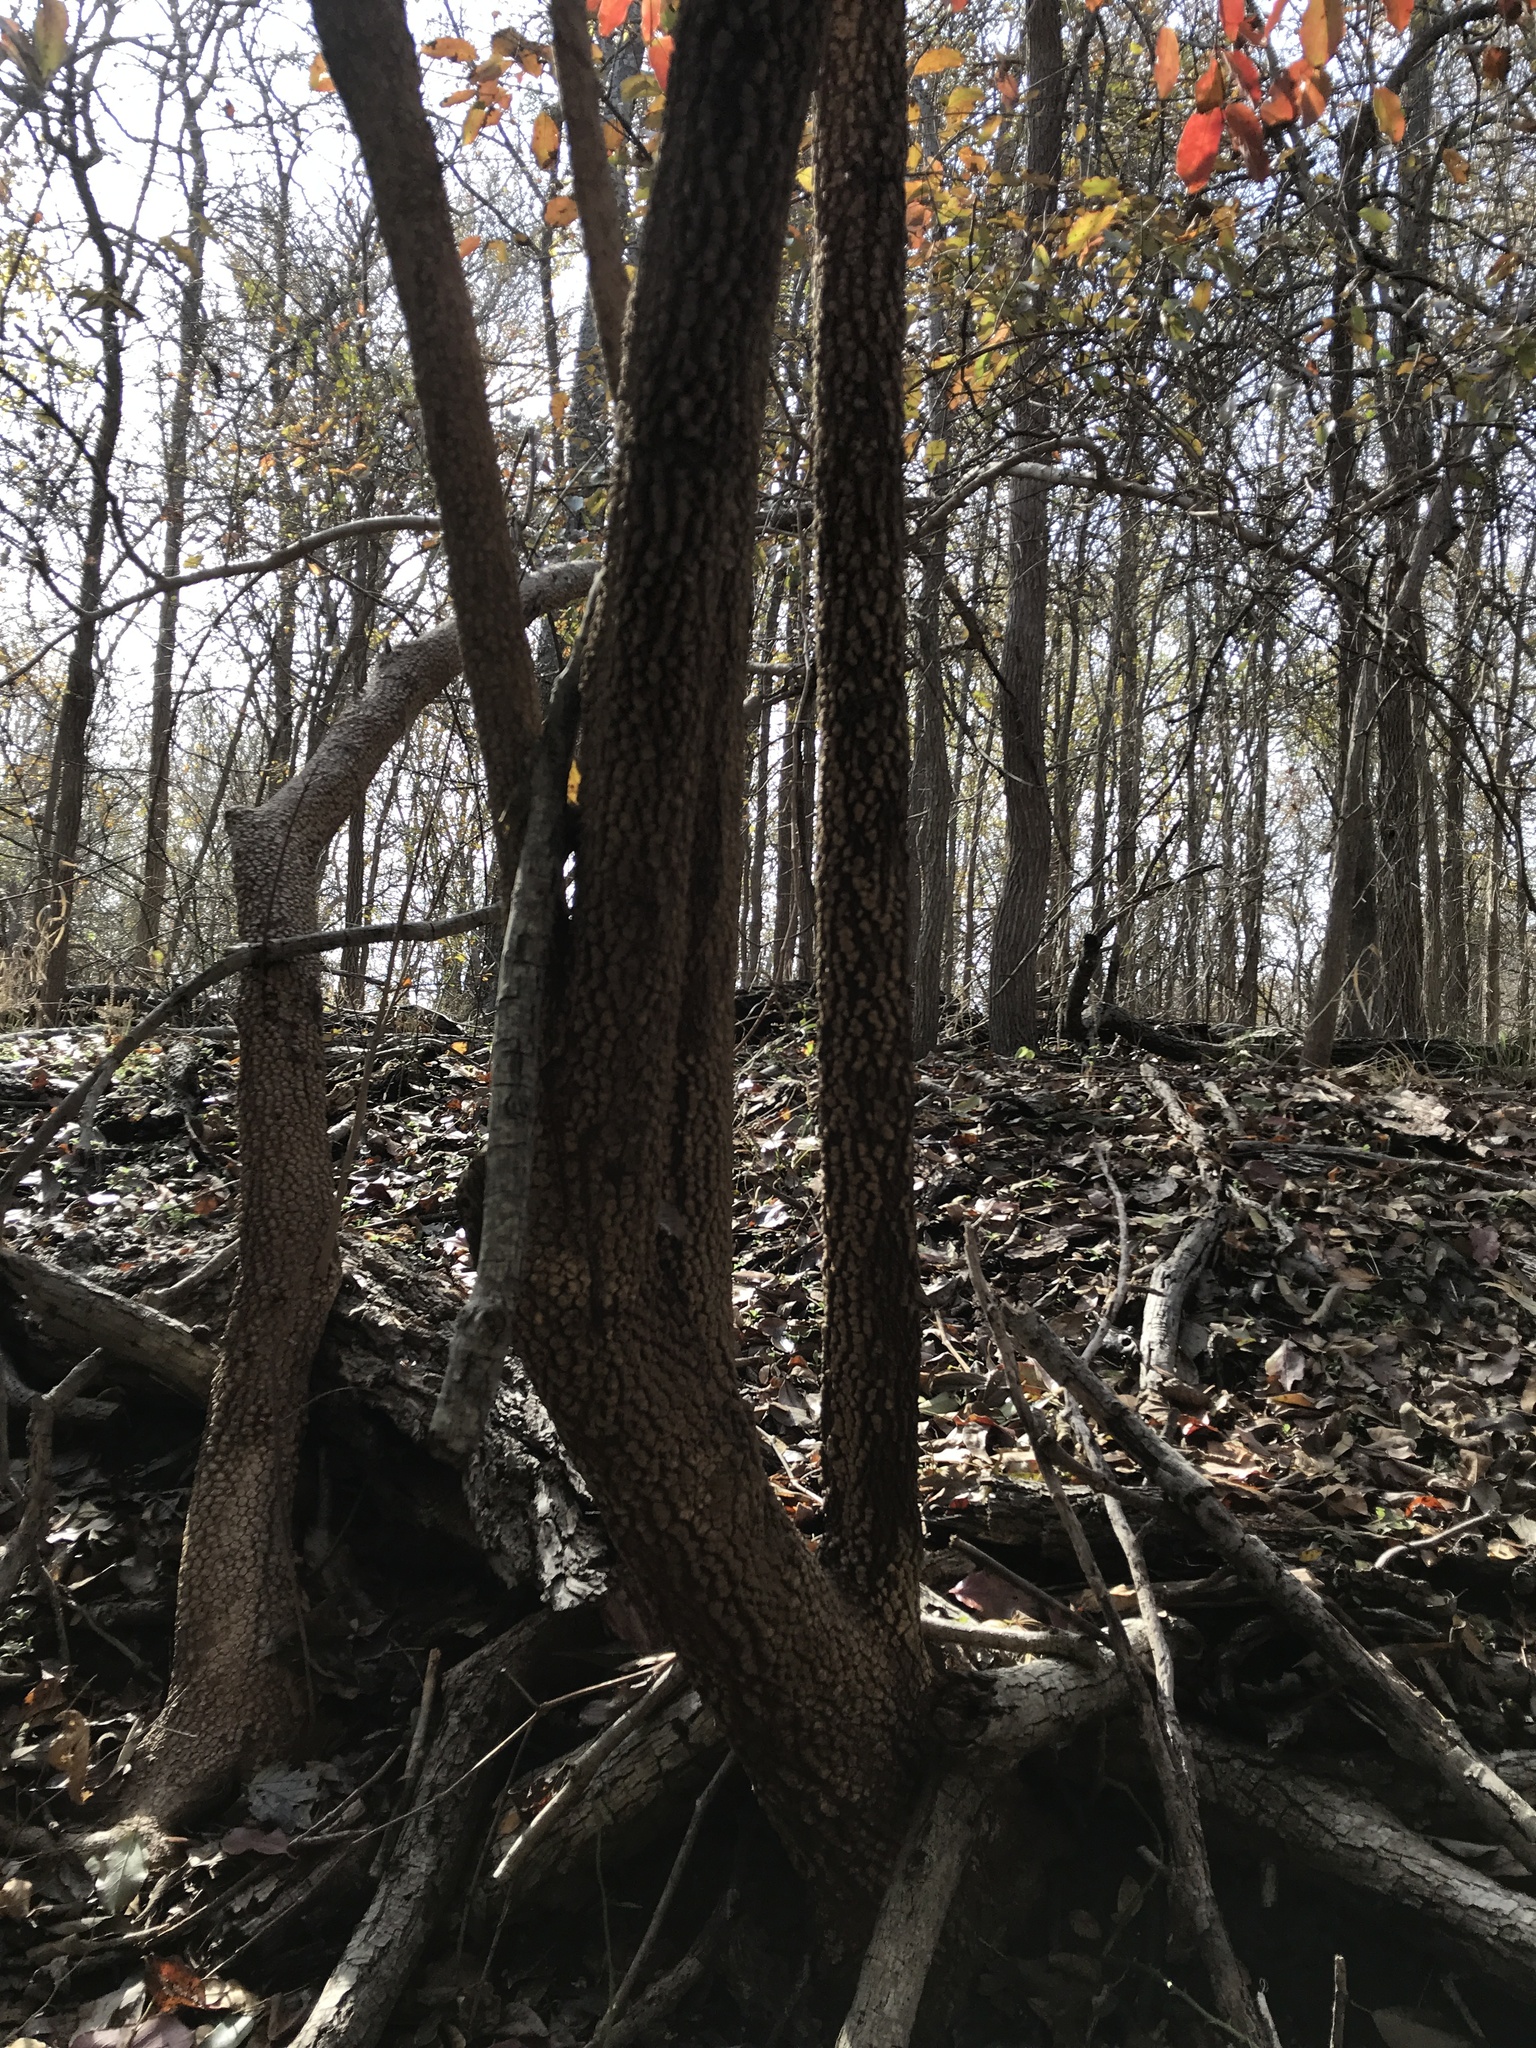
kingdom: Plantae
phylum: Tracheophyta
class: Magnoliopsida
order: Dipsacales
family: Viburnaceae
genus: Viburnum
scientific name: Viburnum rufidulum
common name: Blue haw
